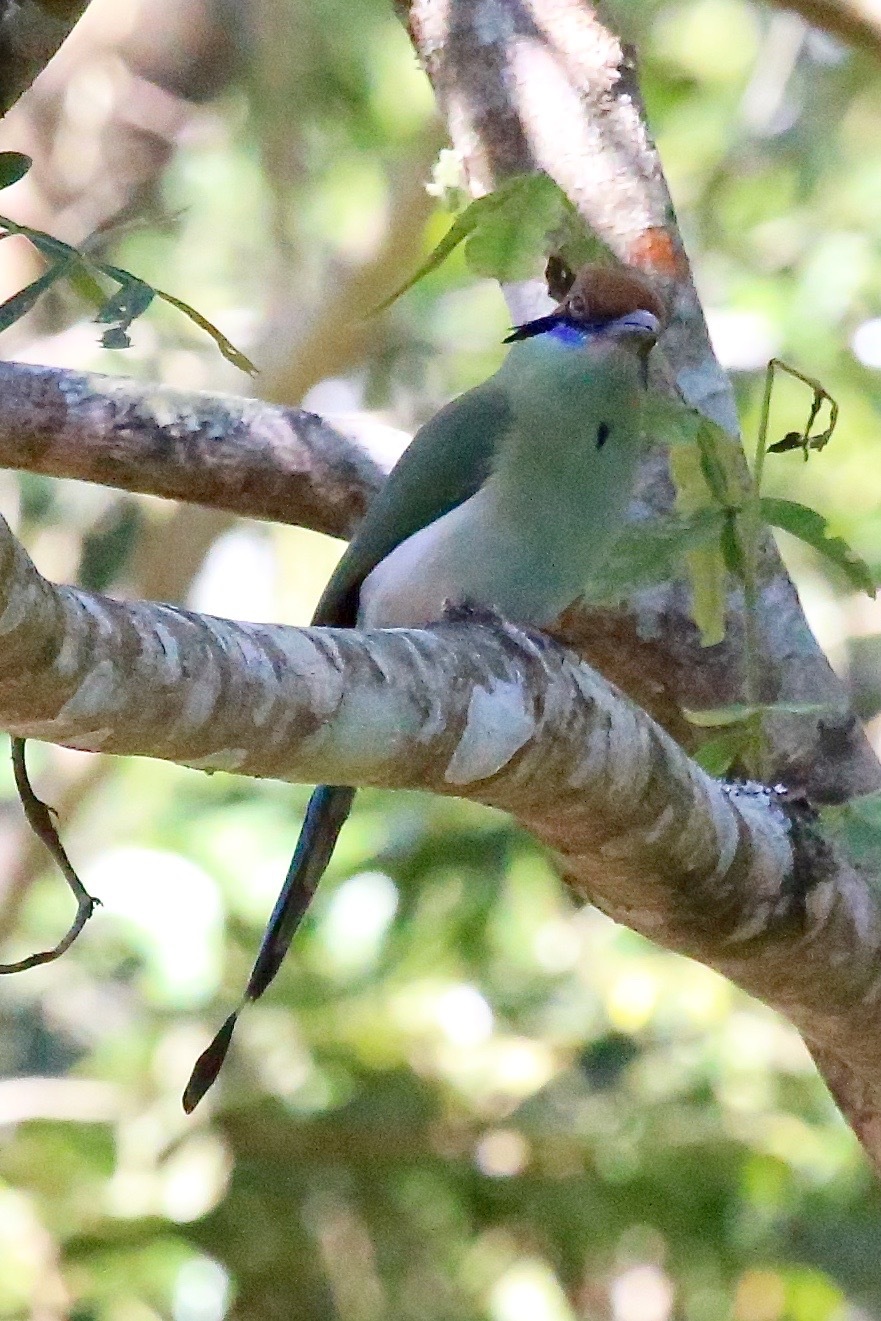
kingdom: Animalia
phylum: Chordata
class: Aves
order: Coraciiformes
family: Momotidae
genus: Momotus
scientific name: Momotus mexicanus
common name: Russet-crowned motmot
